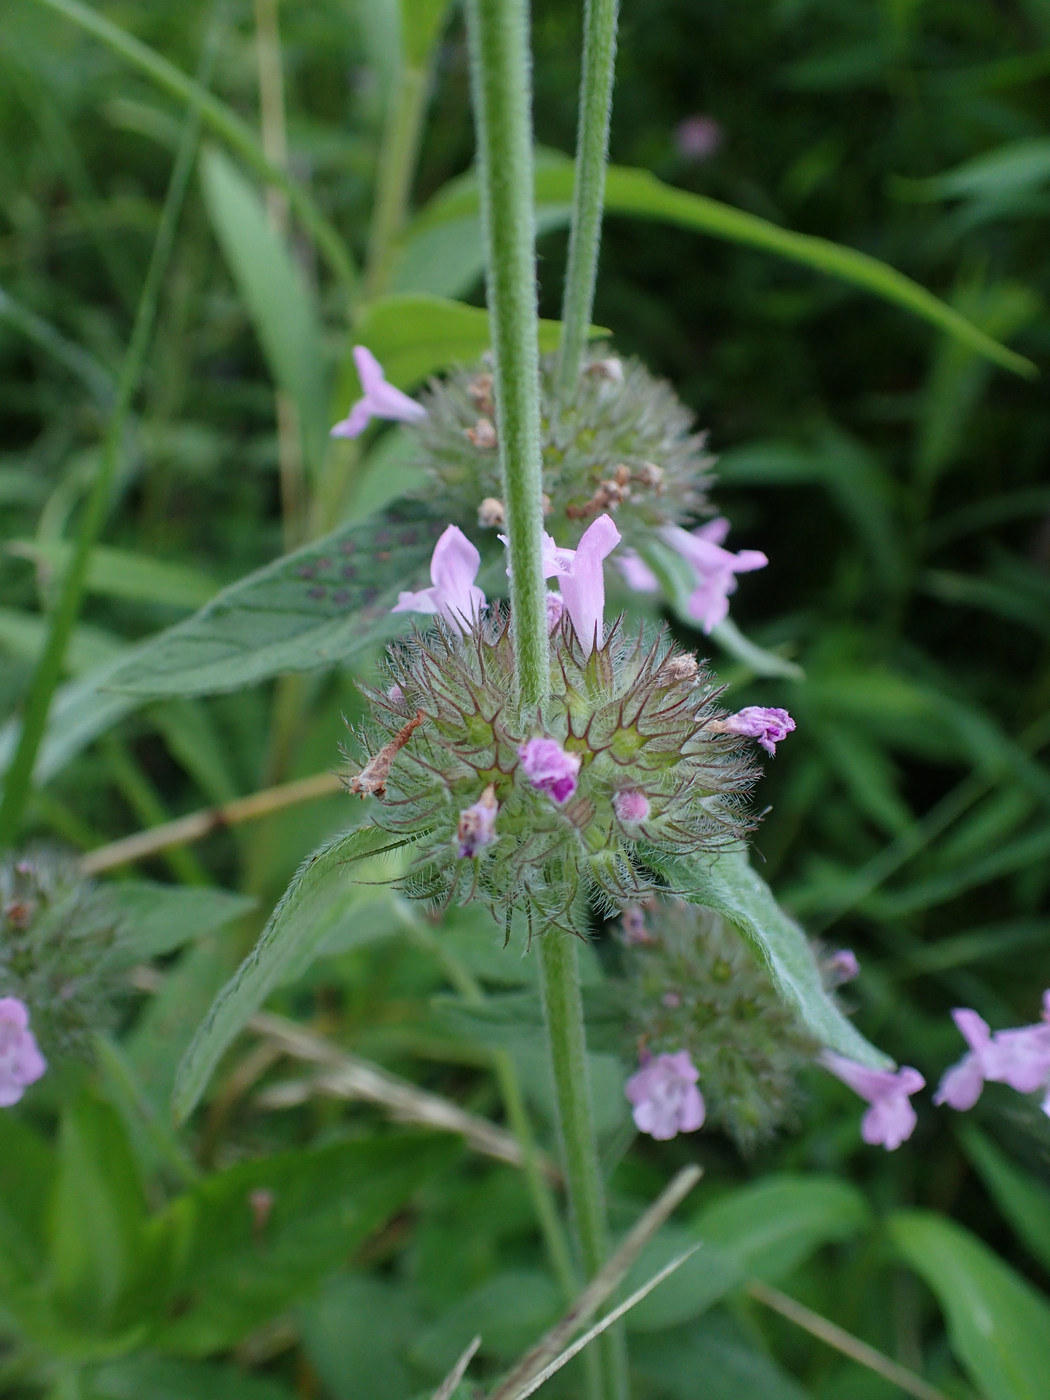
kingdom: Plantae
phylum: Tracheophyta
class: Magnoliopsida
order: Lamiales
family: Lamiaceae
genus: Clinopodium
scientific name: Clinopodium vulgare
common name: Wild basil
